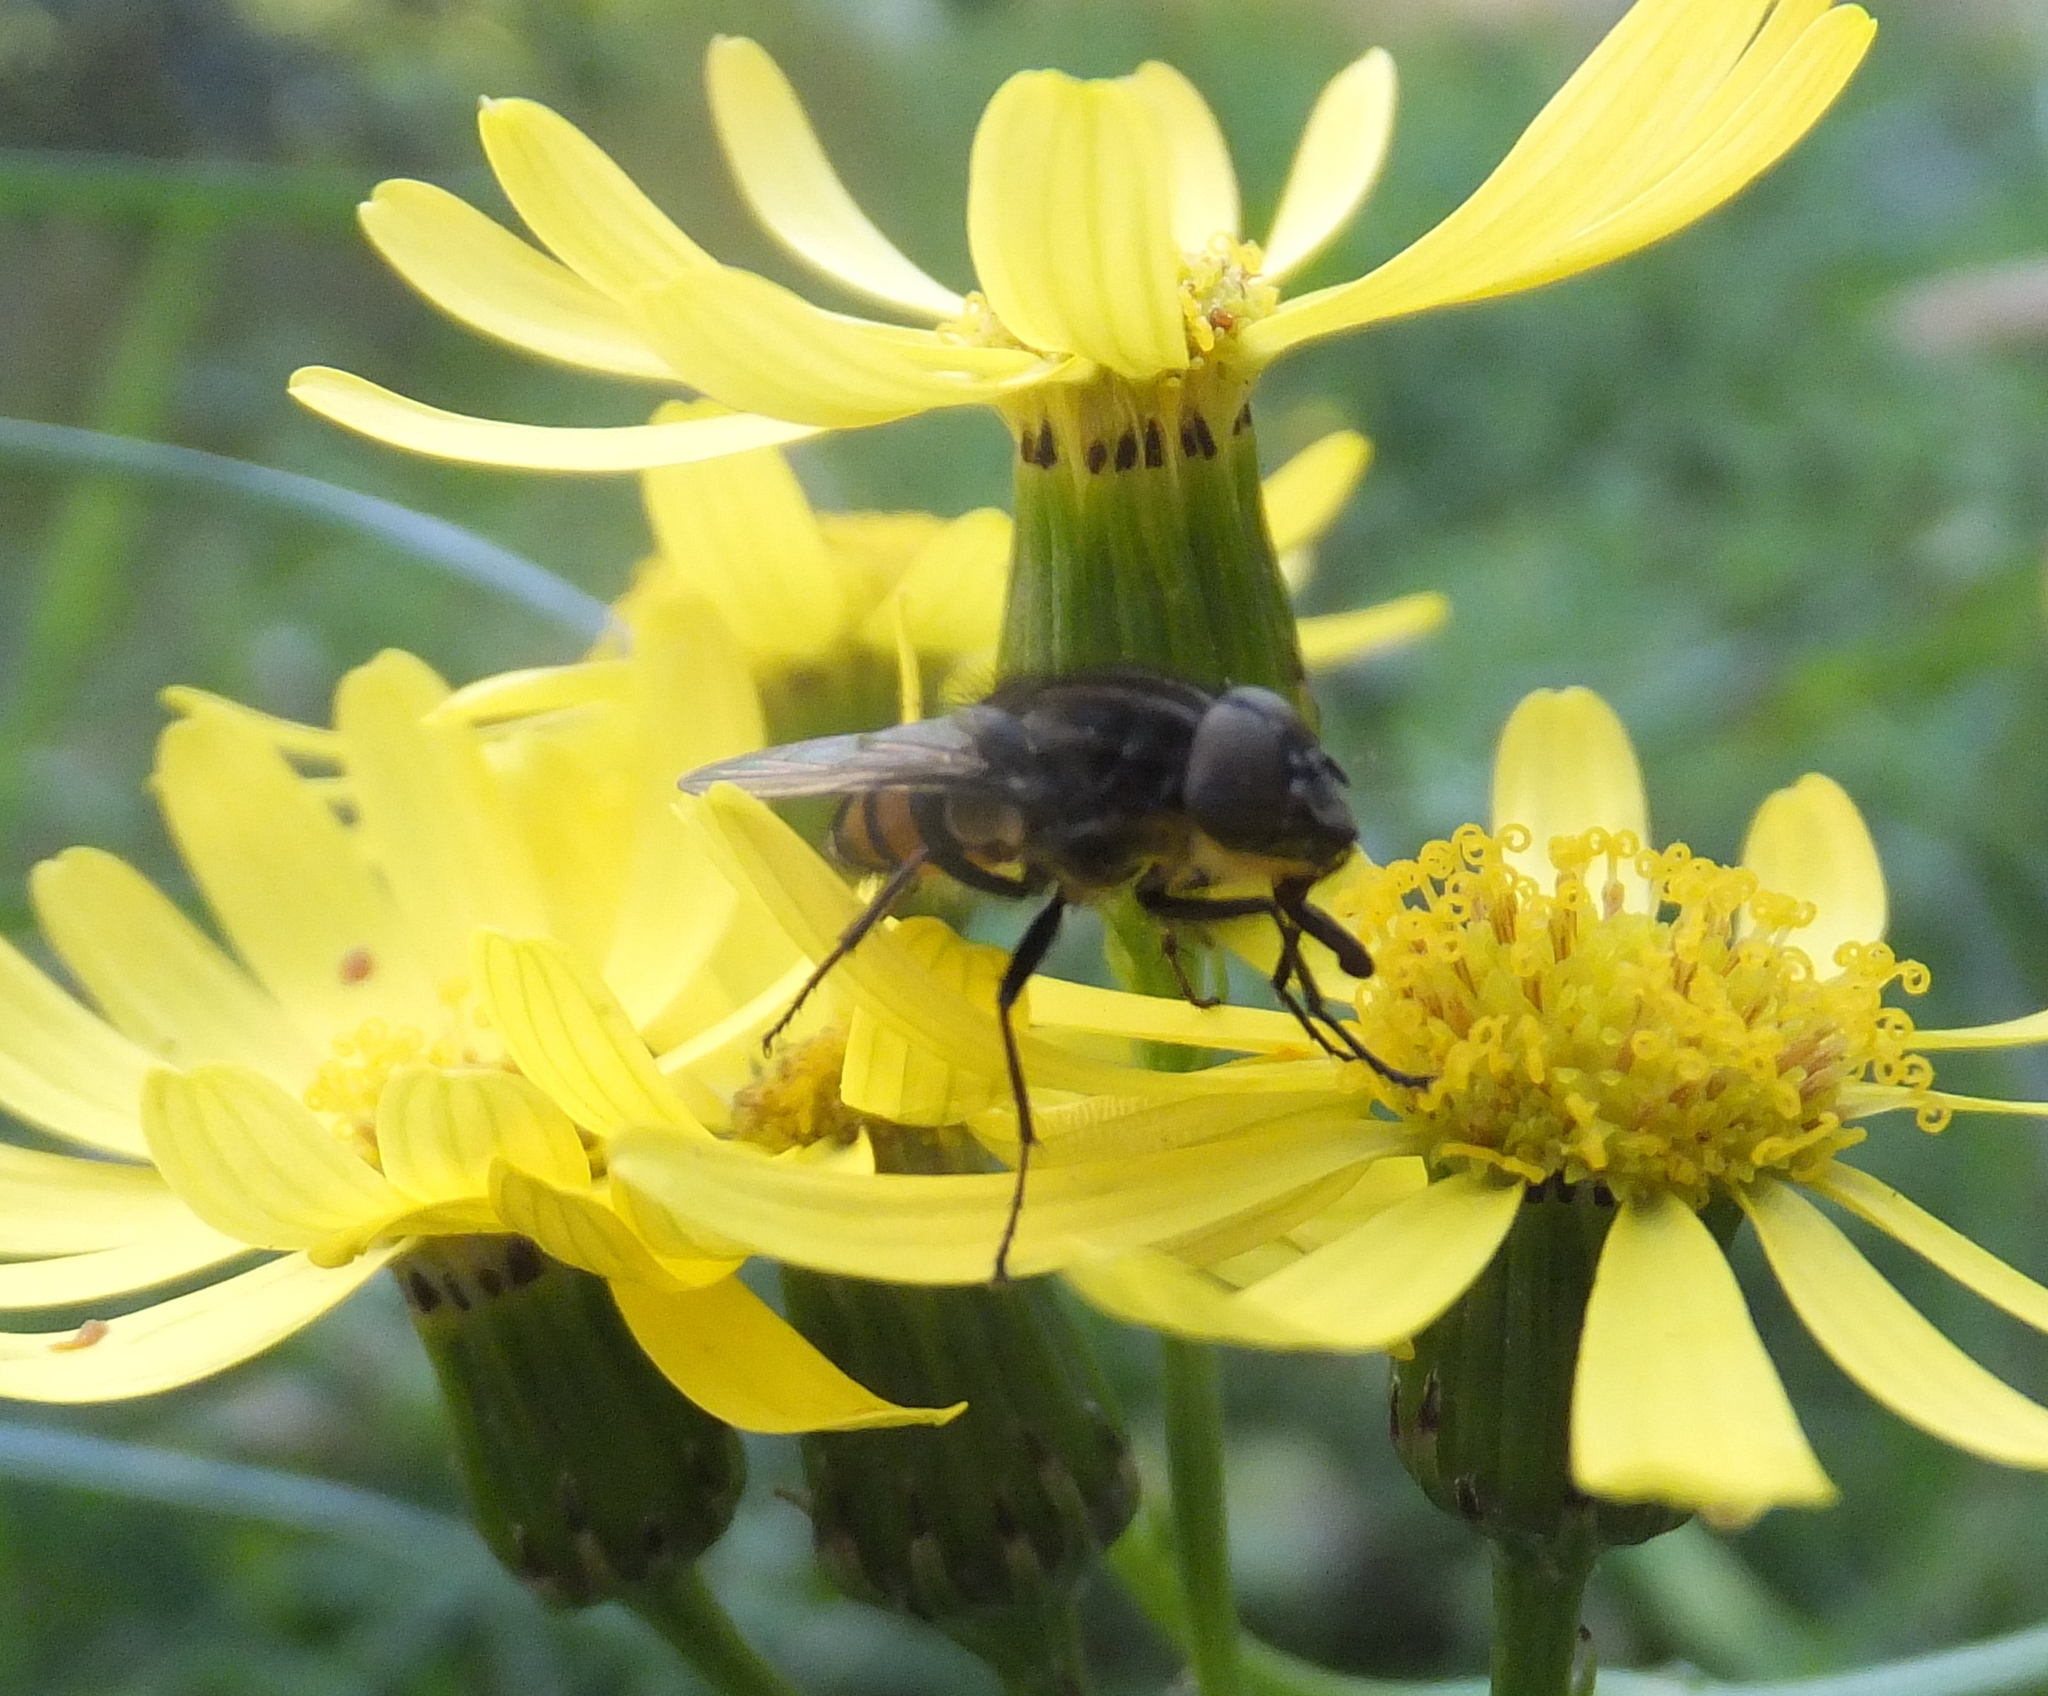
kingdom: Animalia
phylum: Arthropoda
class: Insecta
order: Diptera
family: Calliphoridae
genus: Stomorhina
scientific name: Stomorhina lunata
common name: Locust blowfly
